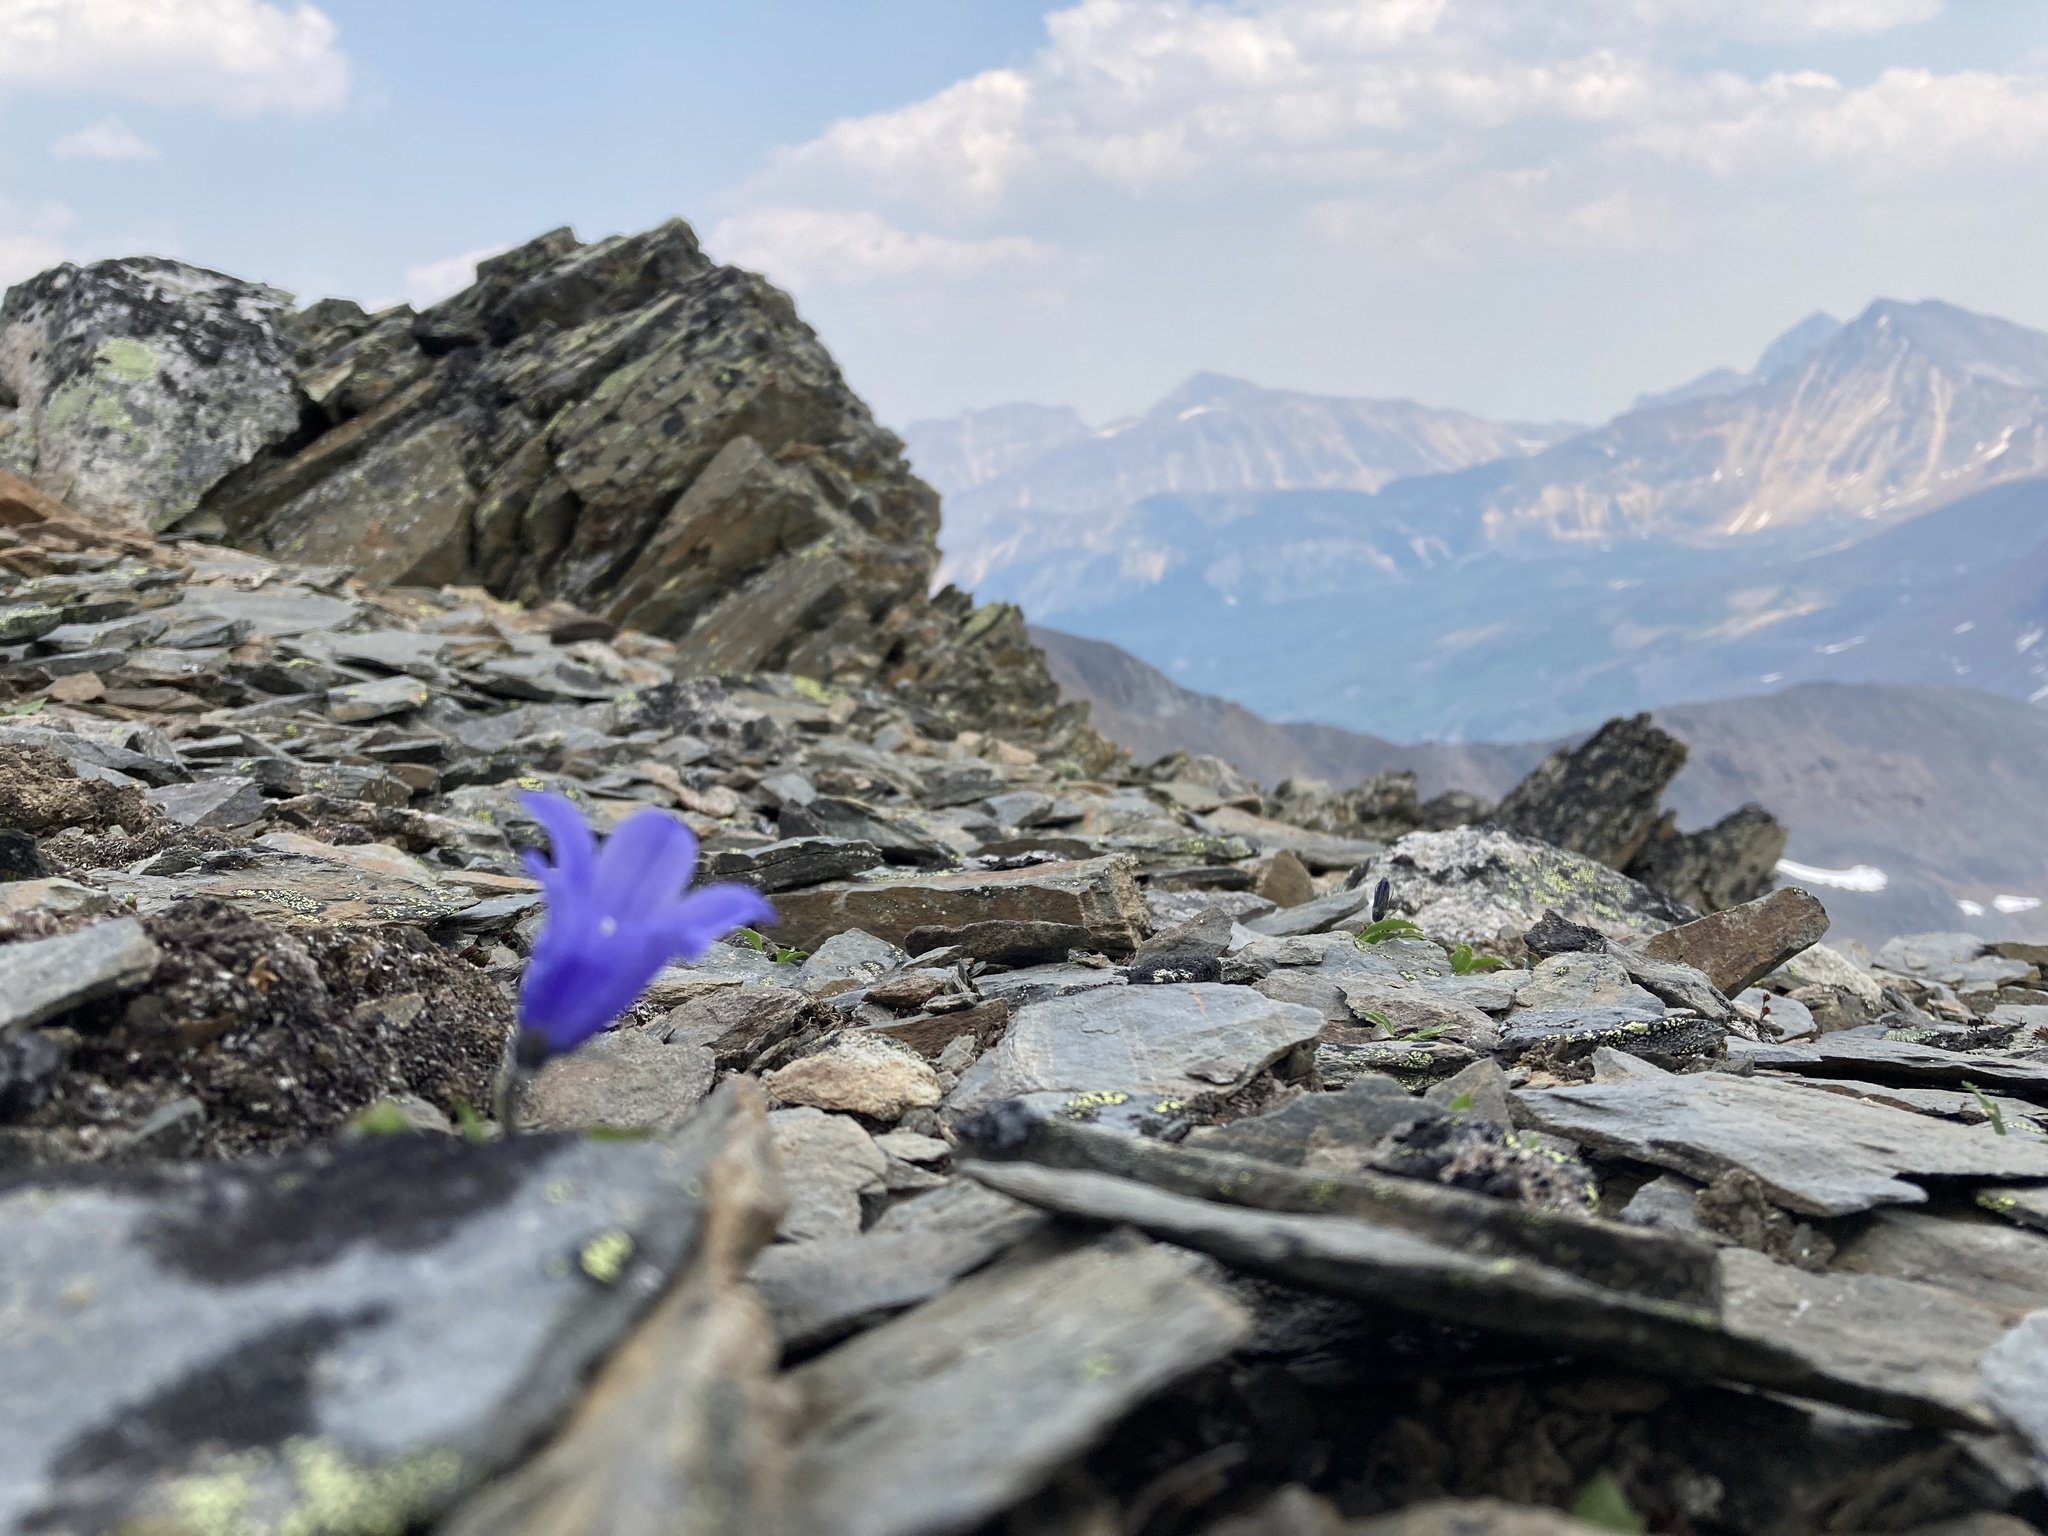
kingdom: Plantae
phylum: Tracheophyta
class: Magnoliopsida
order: Asterales
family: Campanulaceae
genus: Campanula
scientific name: Campanula lasiocarpa
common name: Mountain harebell
